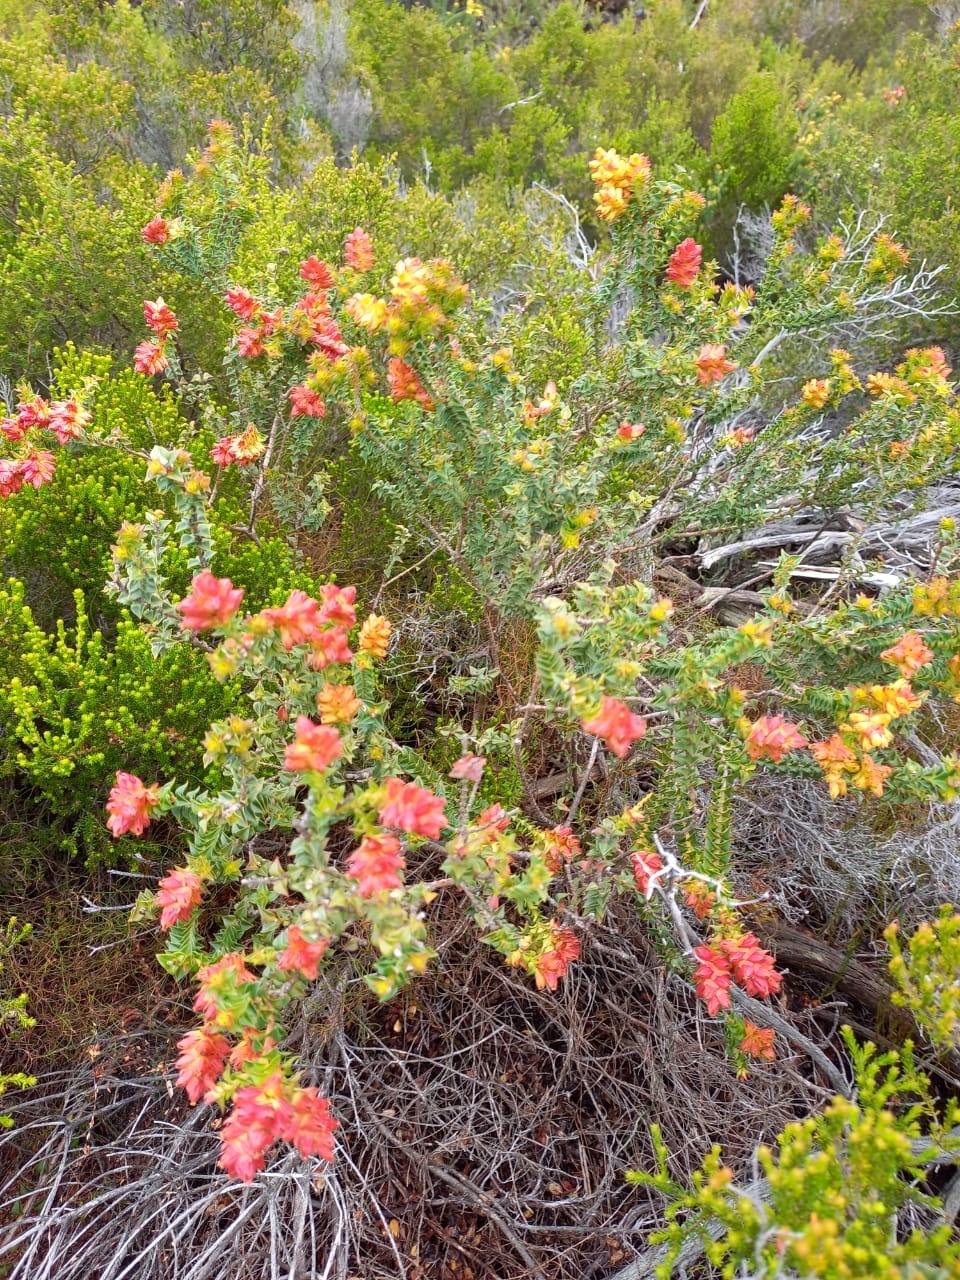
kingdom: Plantae
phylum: Tracheophyta
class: Magnoliopsida
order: Myrtales
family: Penaeaceae
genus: Penaea
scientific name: Penaea mucronata
